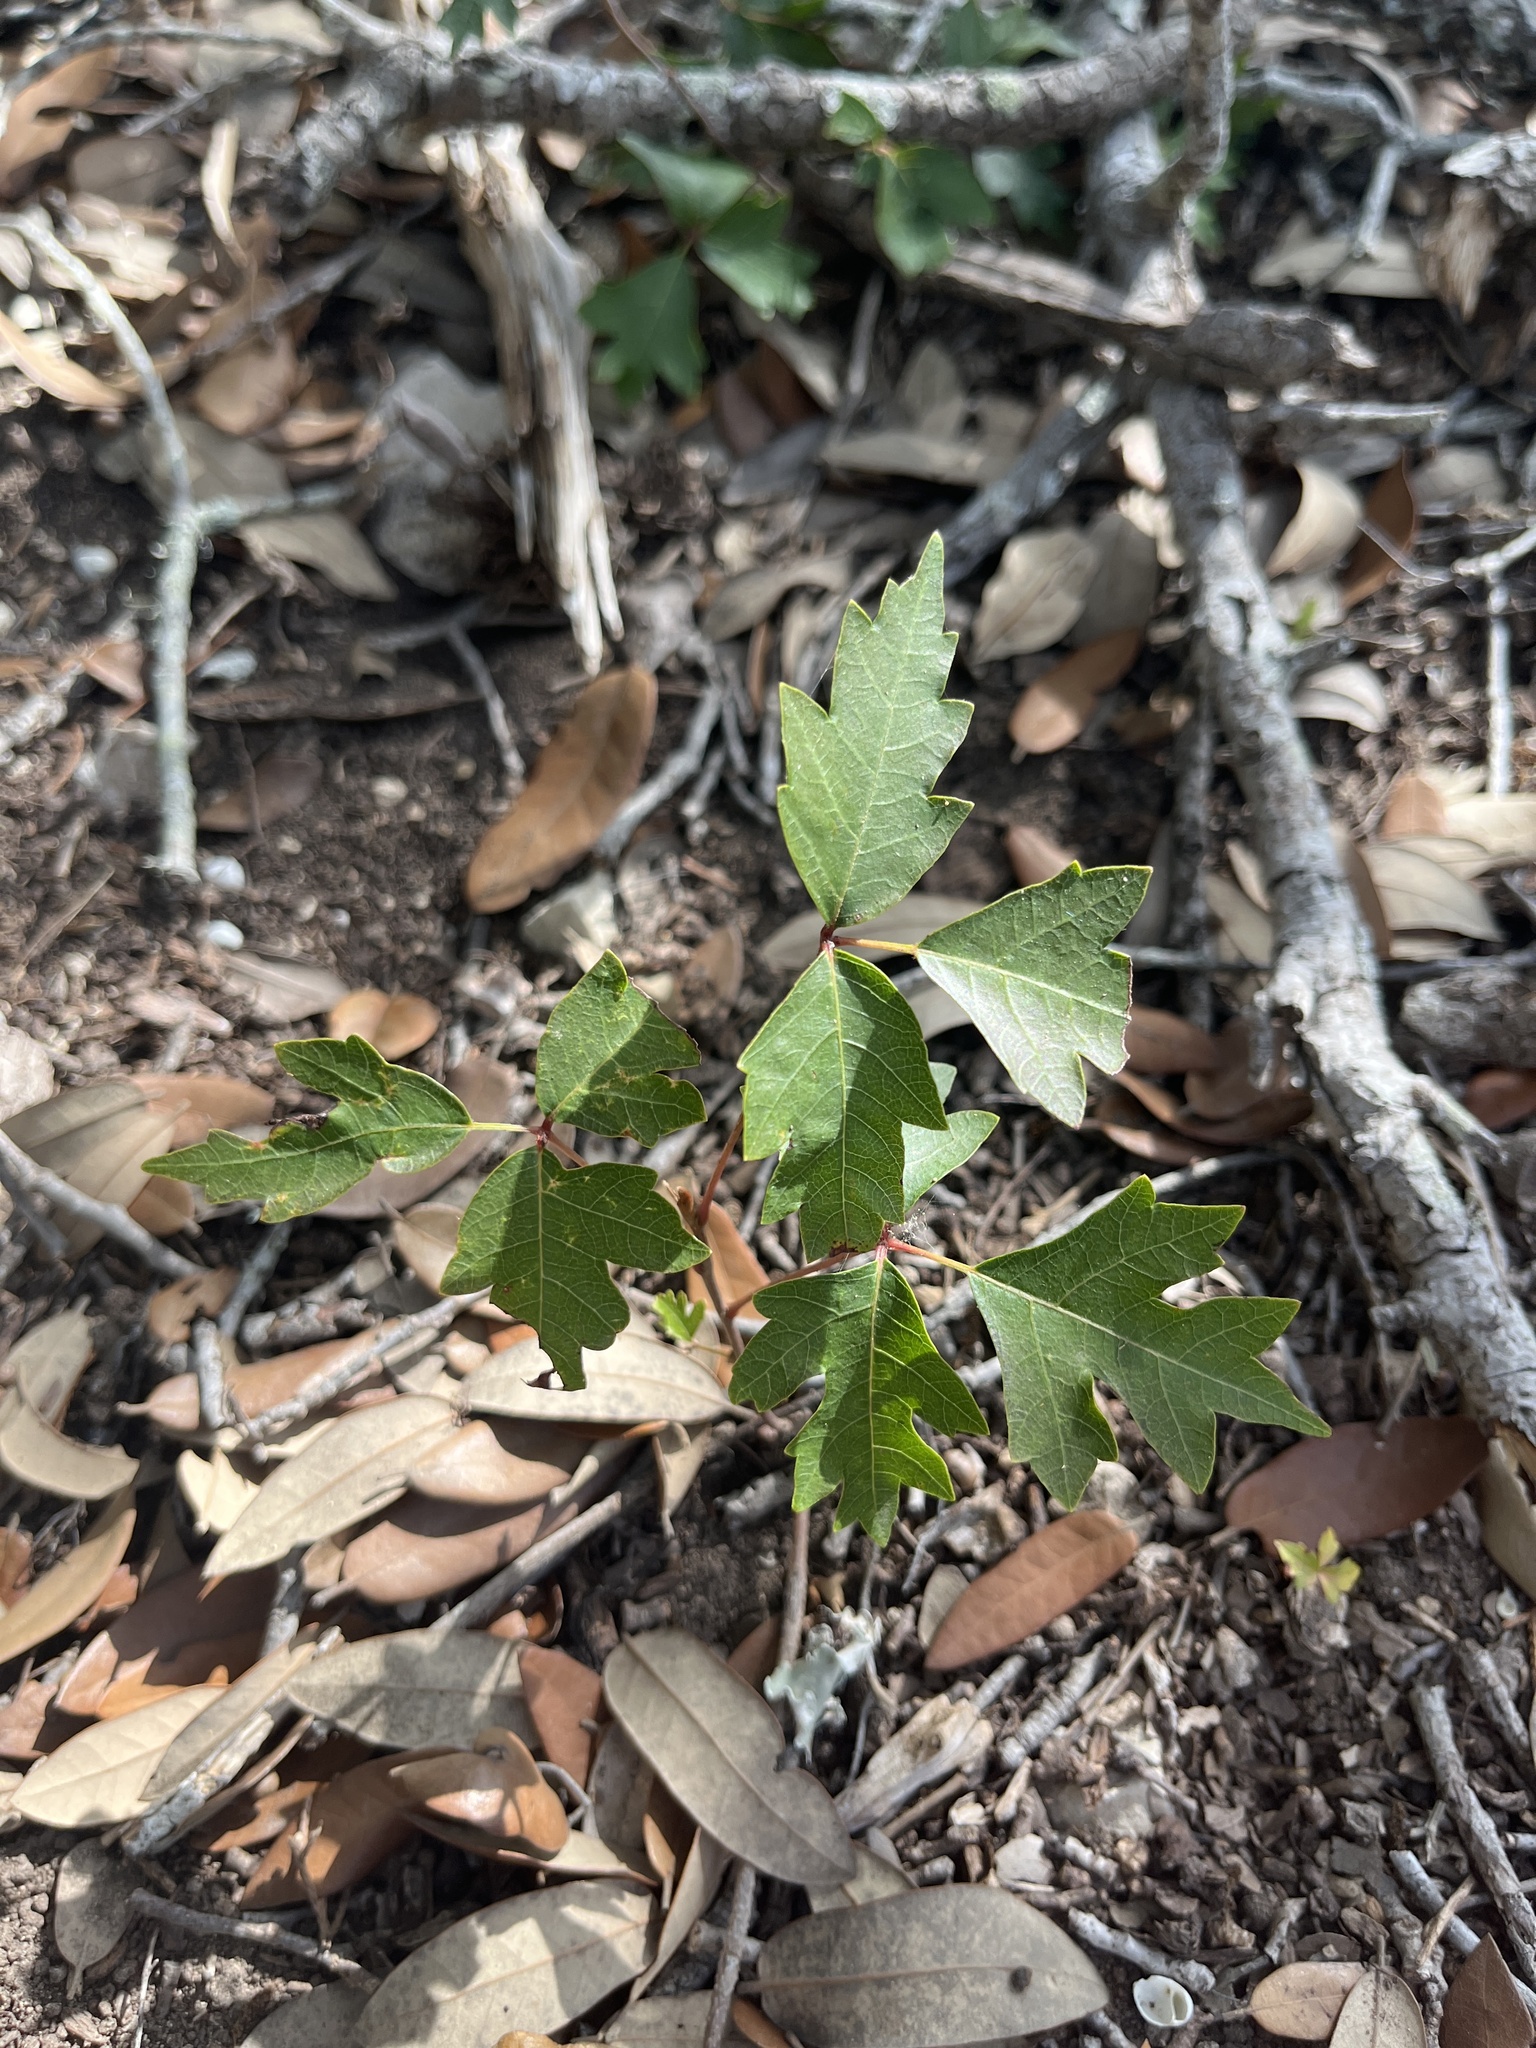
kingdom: Plantae
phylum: Tracheophyta
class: Magnoliopsida
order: Sapindales
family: Anacardiaceae
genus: Toxicodendron
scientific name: Toxicodendron radicans
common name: Poison ivy
